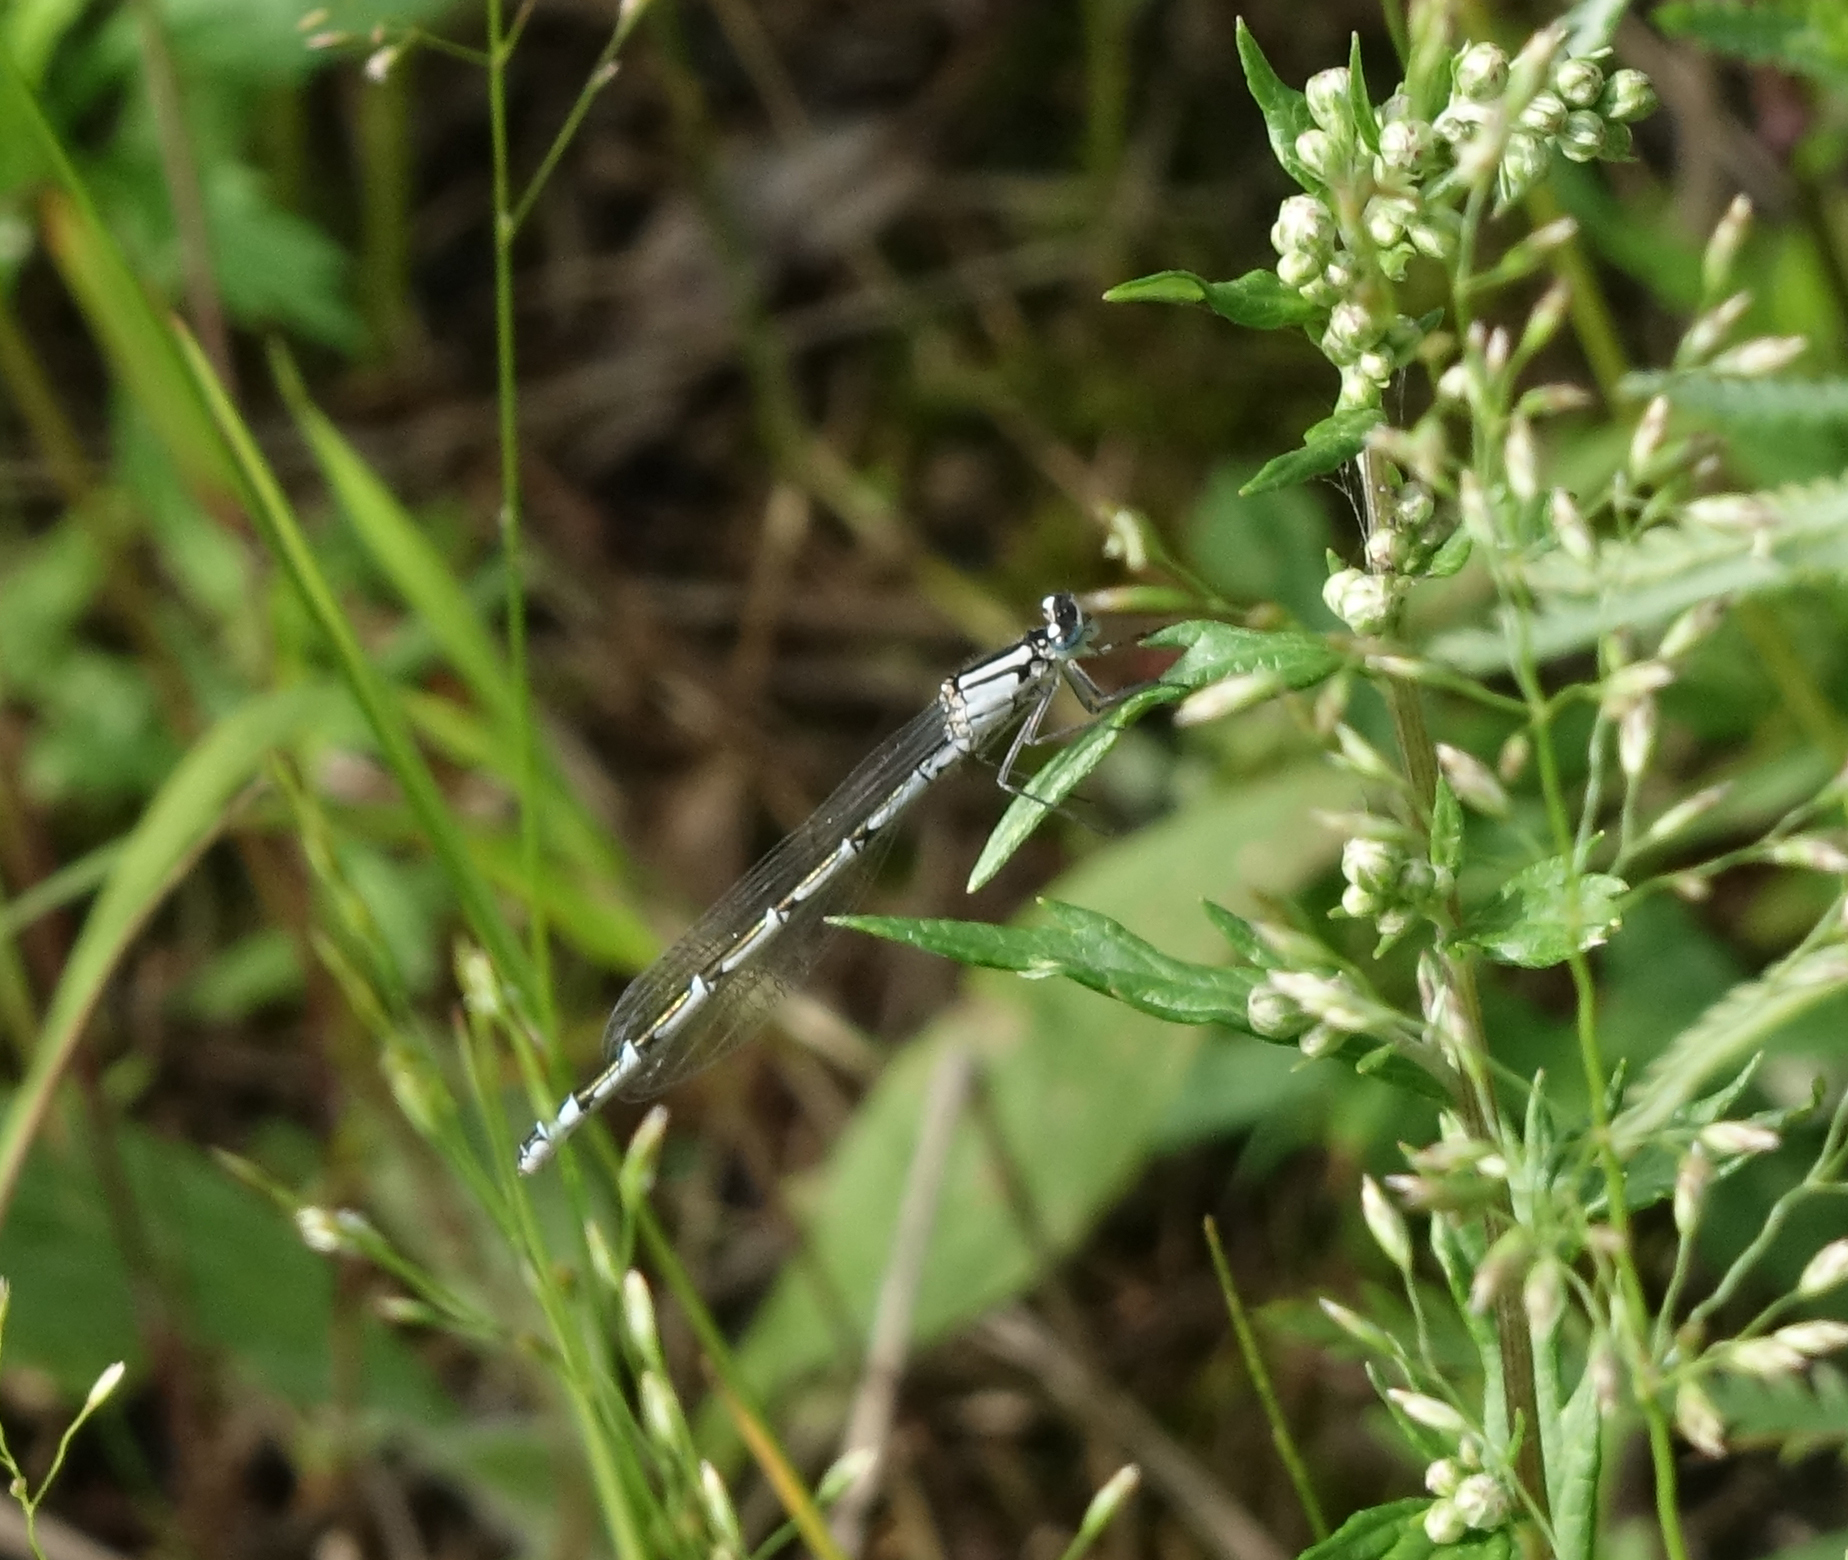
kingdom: Animalia
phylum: Arthropoda
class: Insecta
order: Odonata
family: Coenagrionidae
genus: Enallagma
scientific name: Enallagma cyathigerum
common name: Common blue damselfly
